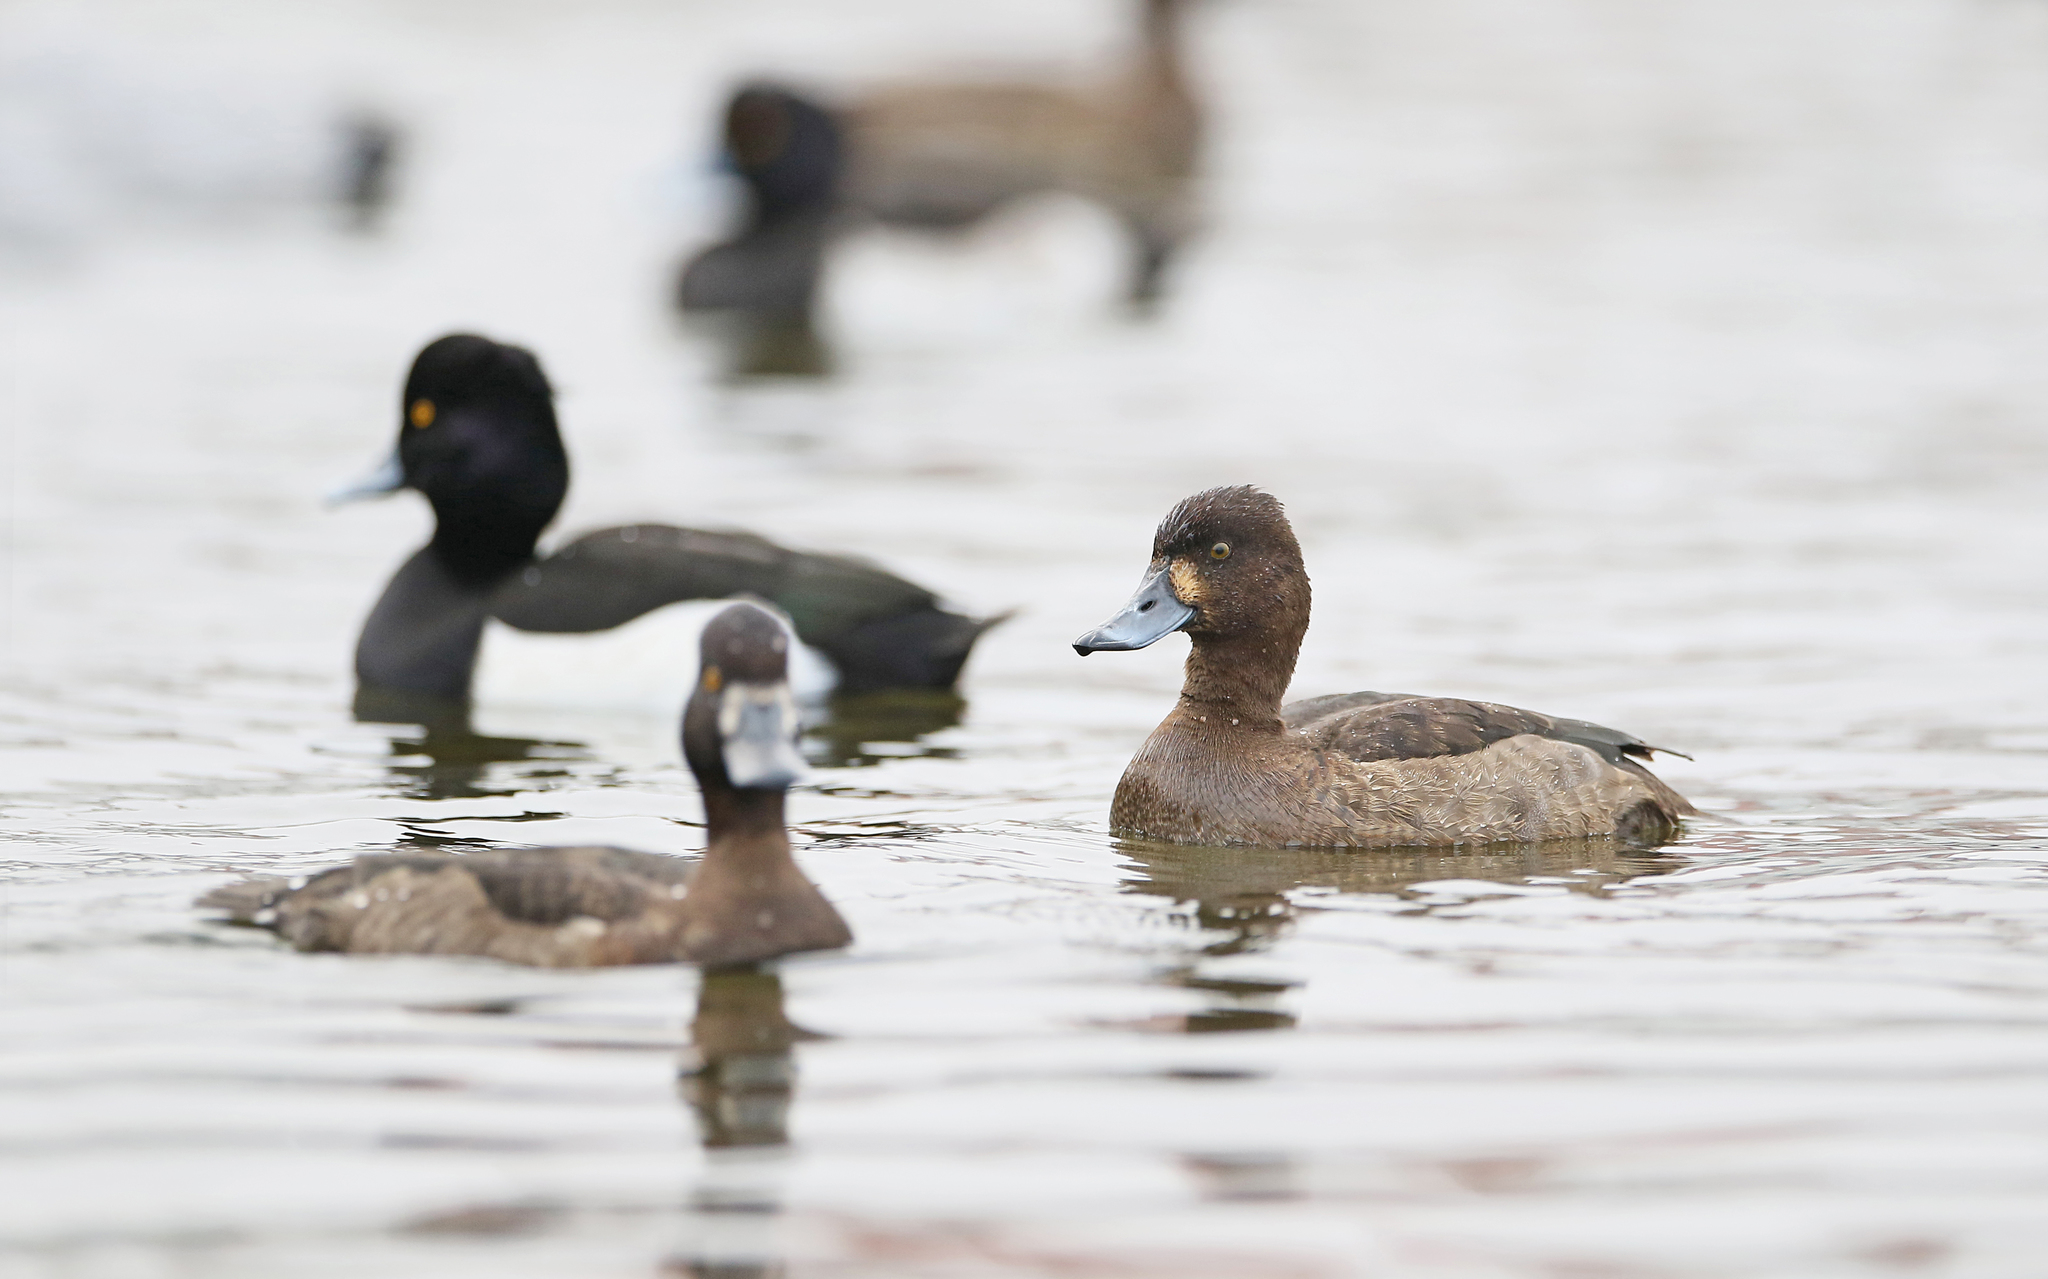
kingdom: Animalia
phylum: Chordata
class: Aves
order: Anseriformes
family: Anatidae
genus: Aythya
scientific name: Aythya fuligula
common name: Tufted duck
